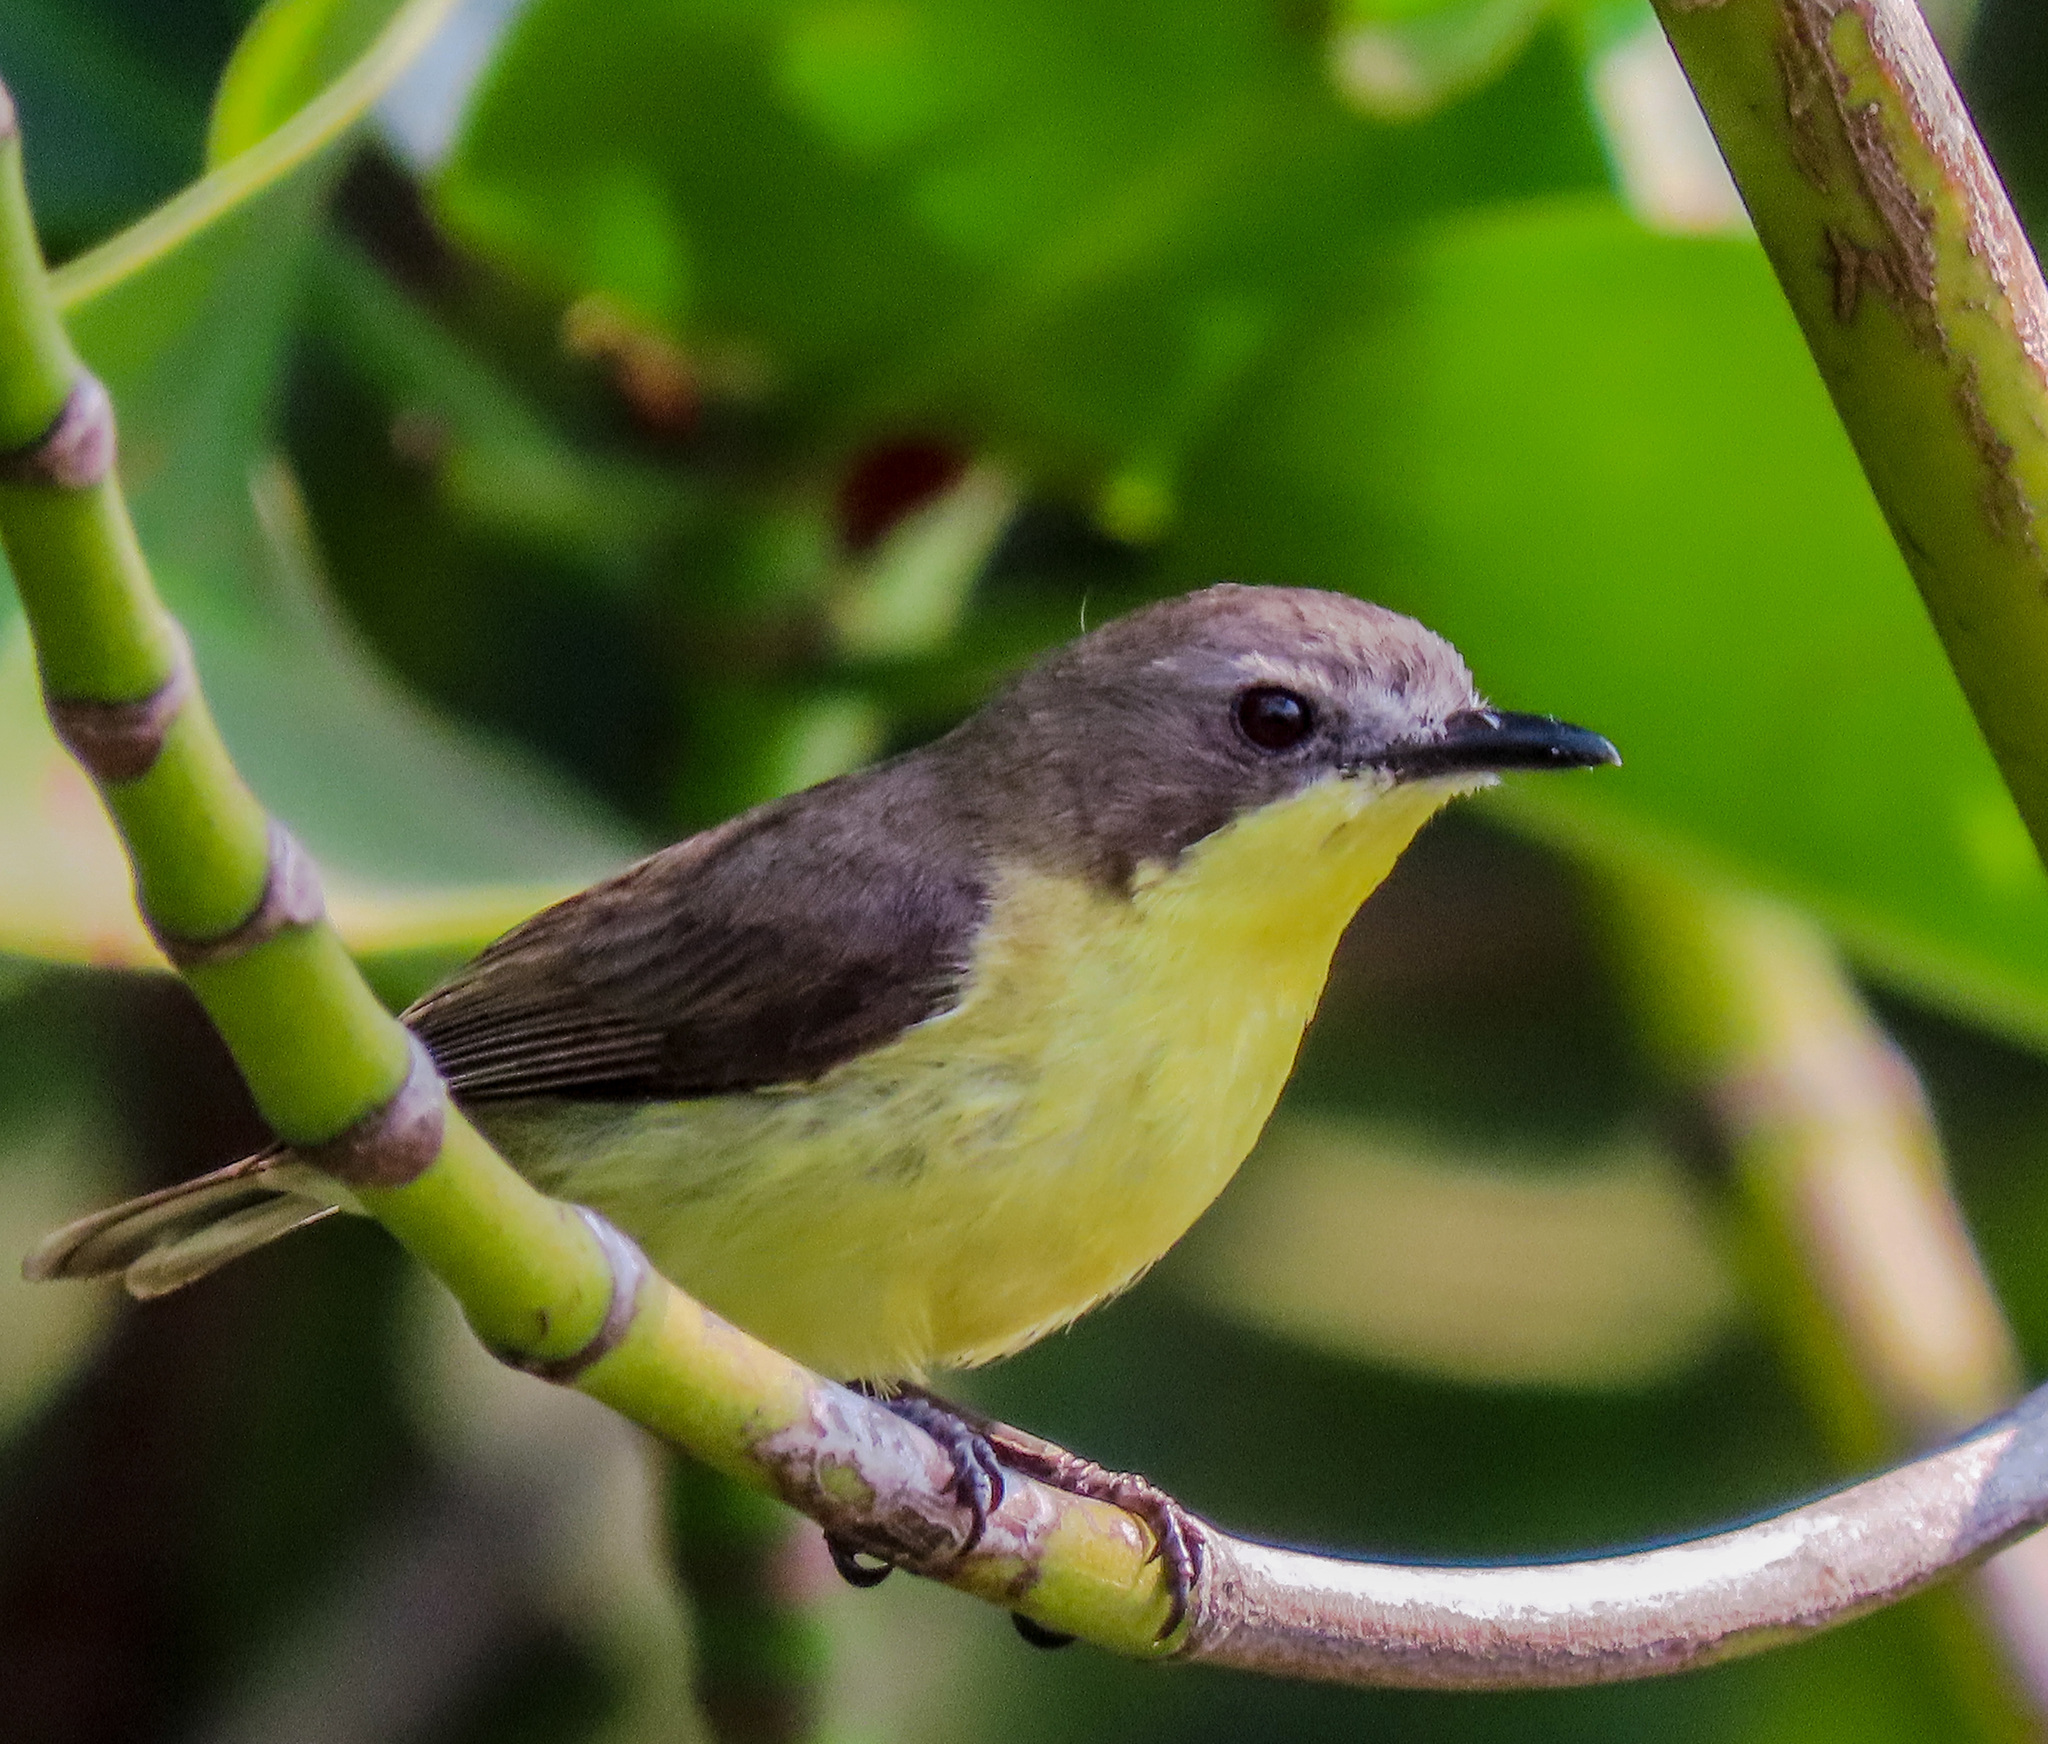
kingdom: Animalia
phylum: Chordata
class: Aves
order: Passeriformes
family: Acanthizidae
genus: Gerygone
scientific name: Gerygone sulphurea
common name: Golden-bellied gerygone
